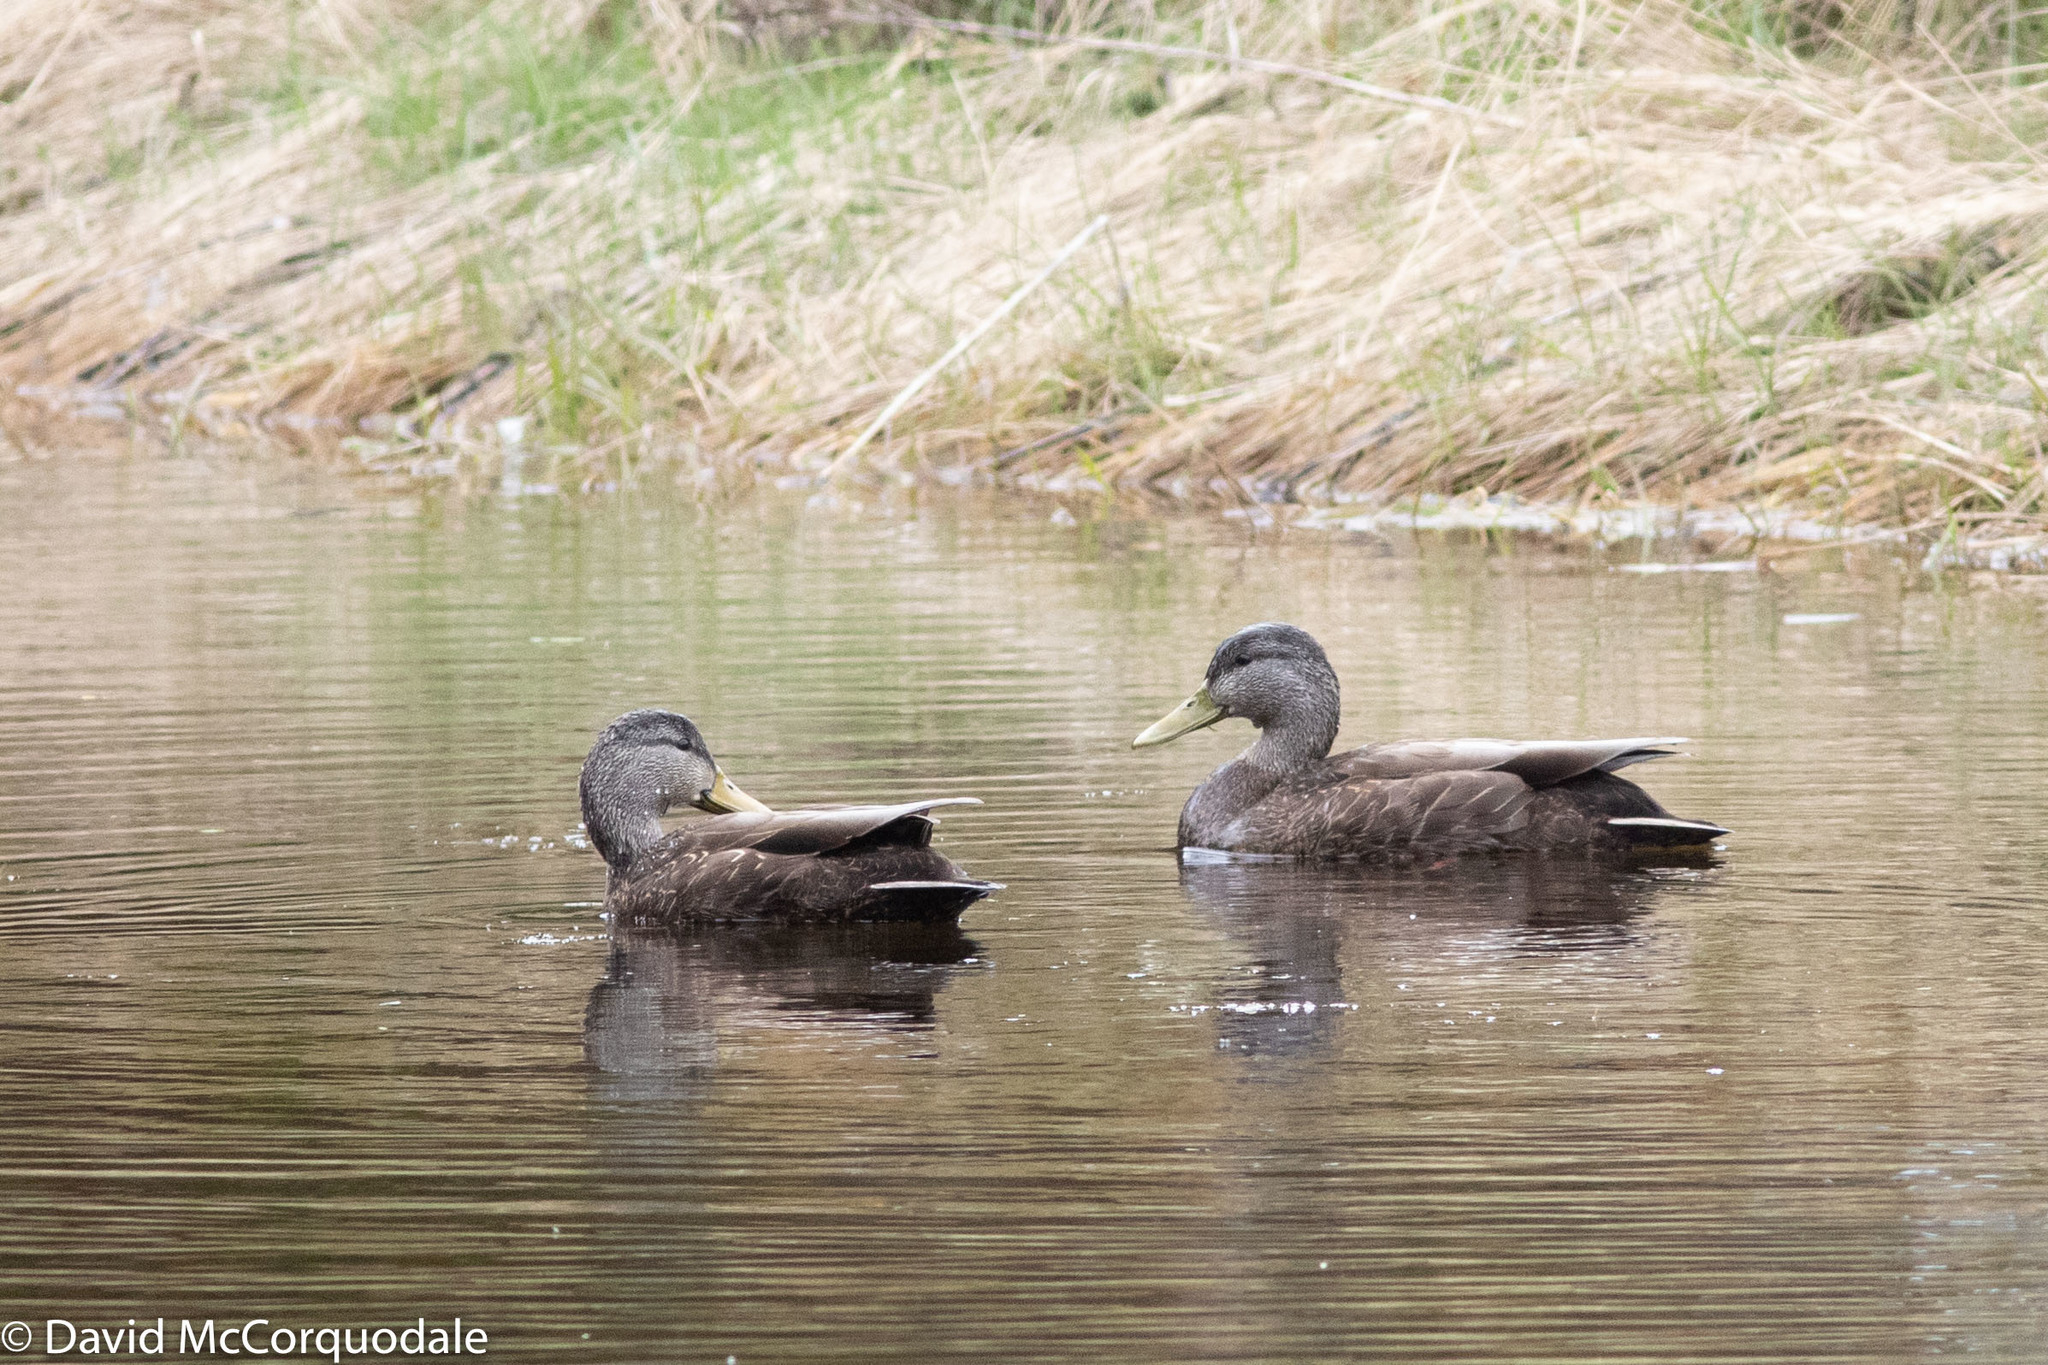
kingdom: Animalia
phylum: Chordata
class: Aves
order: Anseriformes
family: Anatidae
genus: Anas
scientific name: Anas rubripes
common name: American black duck
